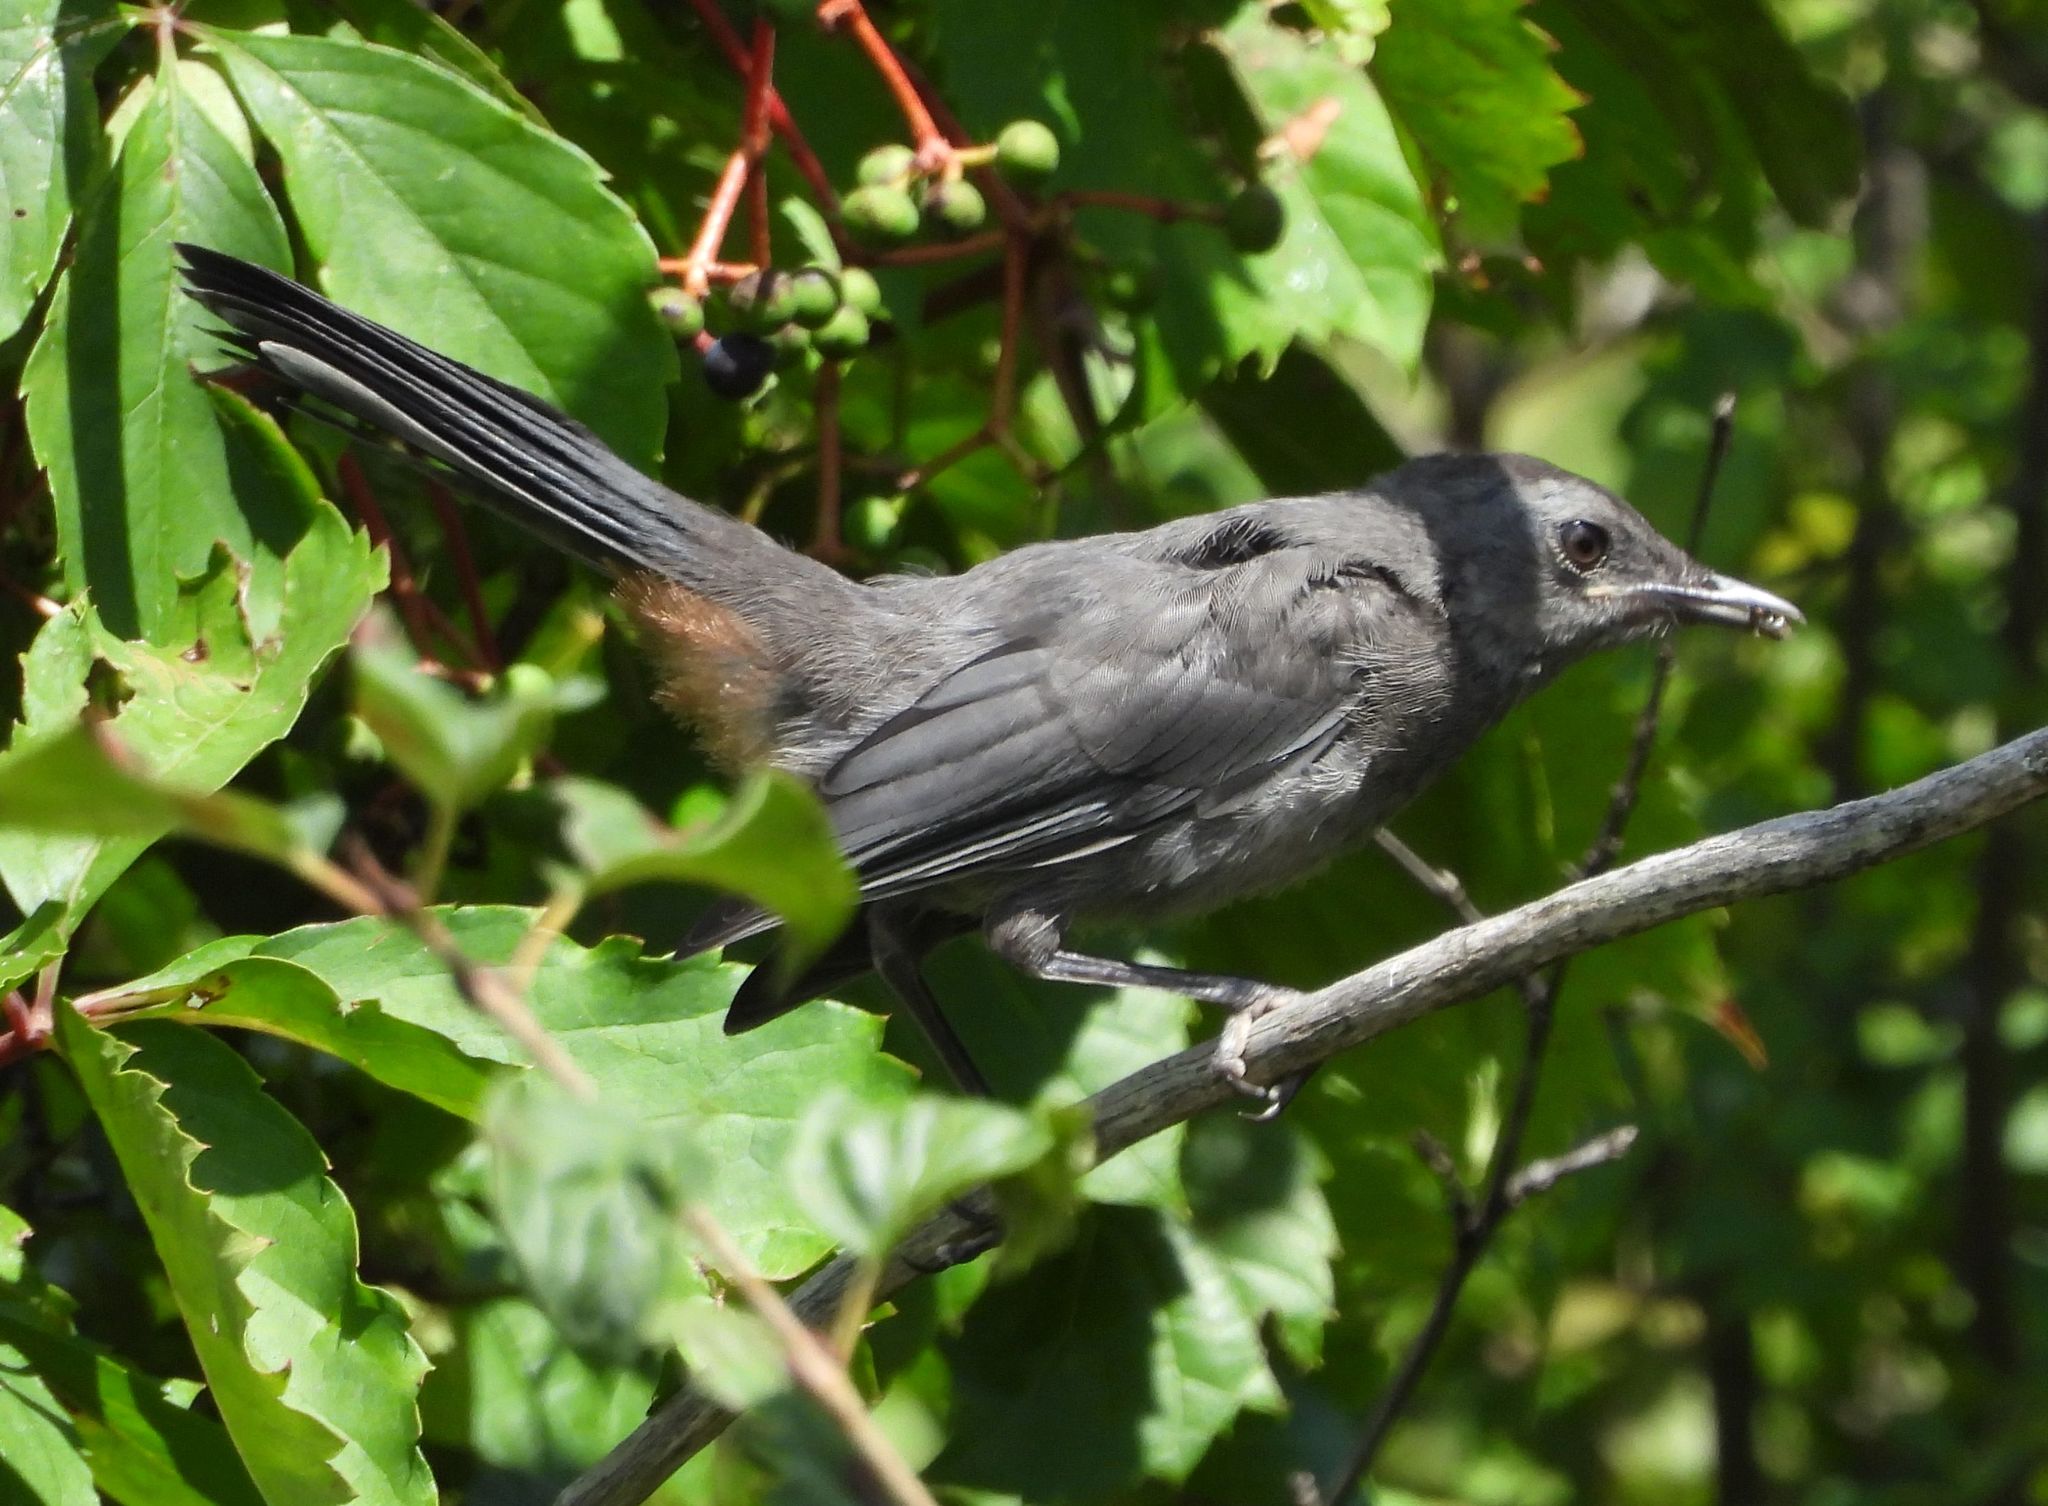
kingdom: Animalia
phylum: Chordata
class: Aves
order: Passeriformes
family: Mimidae
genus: Dumetella
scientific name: Dumetella carolinensis
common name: Gray catbird
